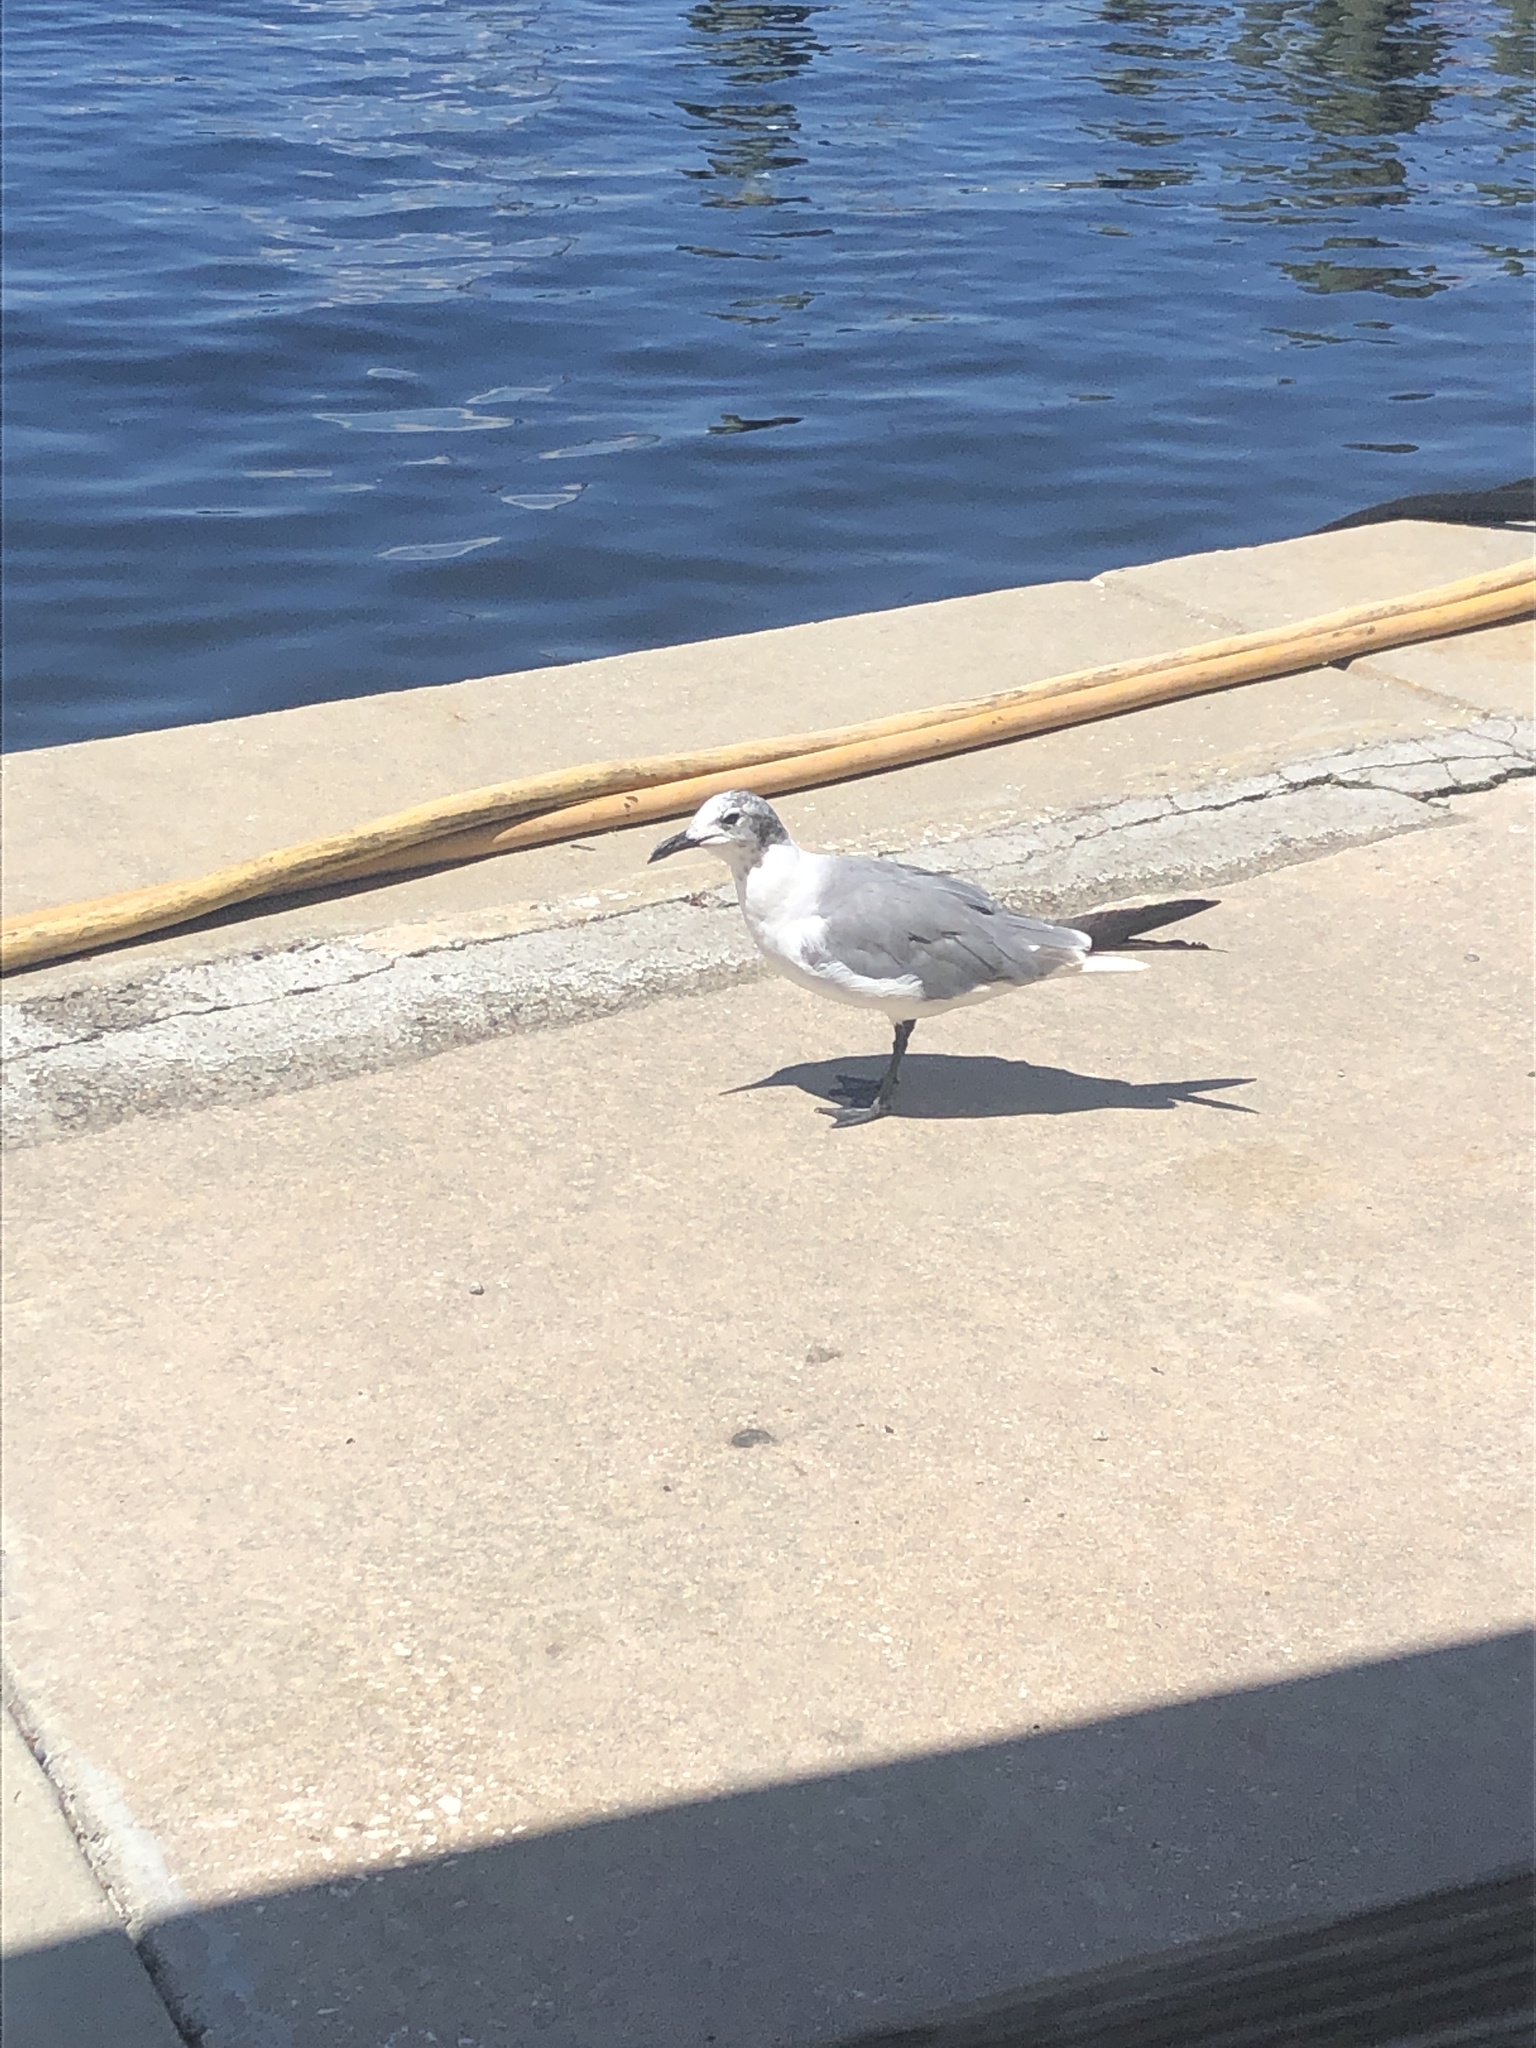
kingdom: Animalia
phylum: Chordata
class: Aves
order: Charadriiformes
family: Laridae
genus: Leucophaeus
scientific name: Leucophaeus atricilla
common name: Laughing gull
